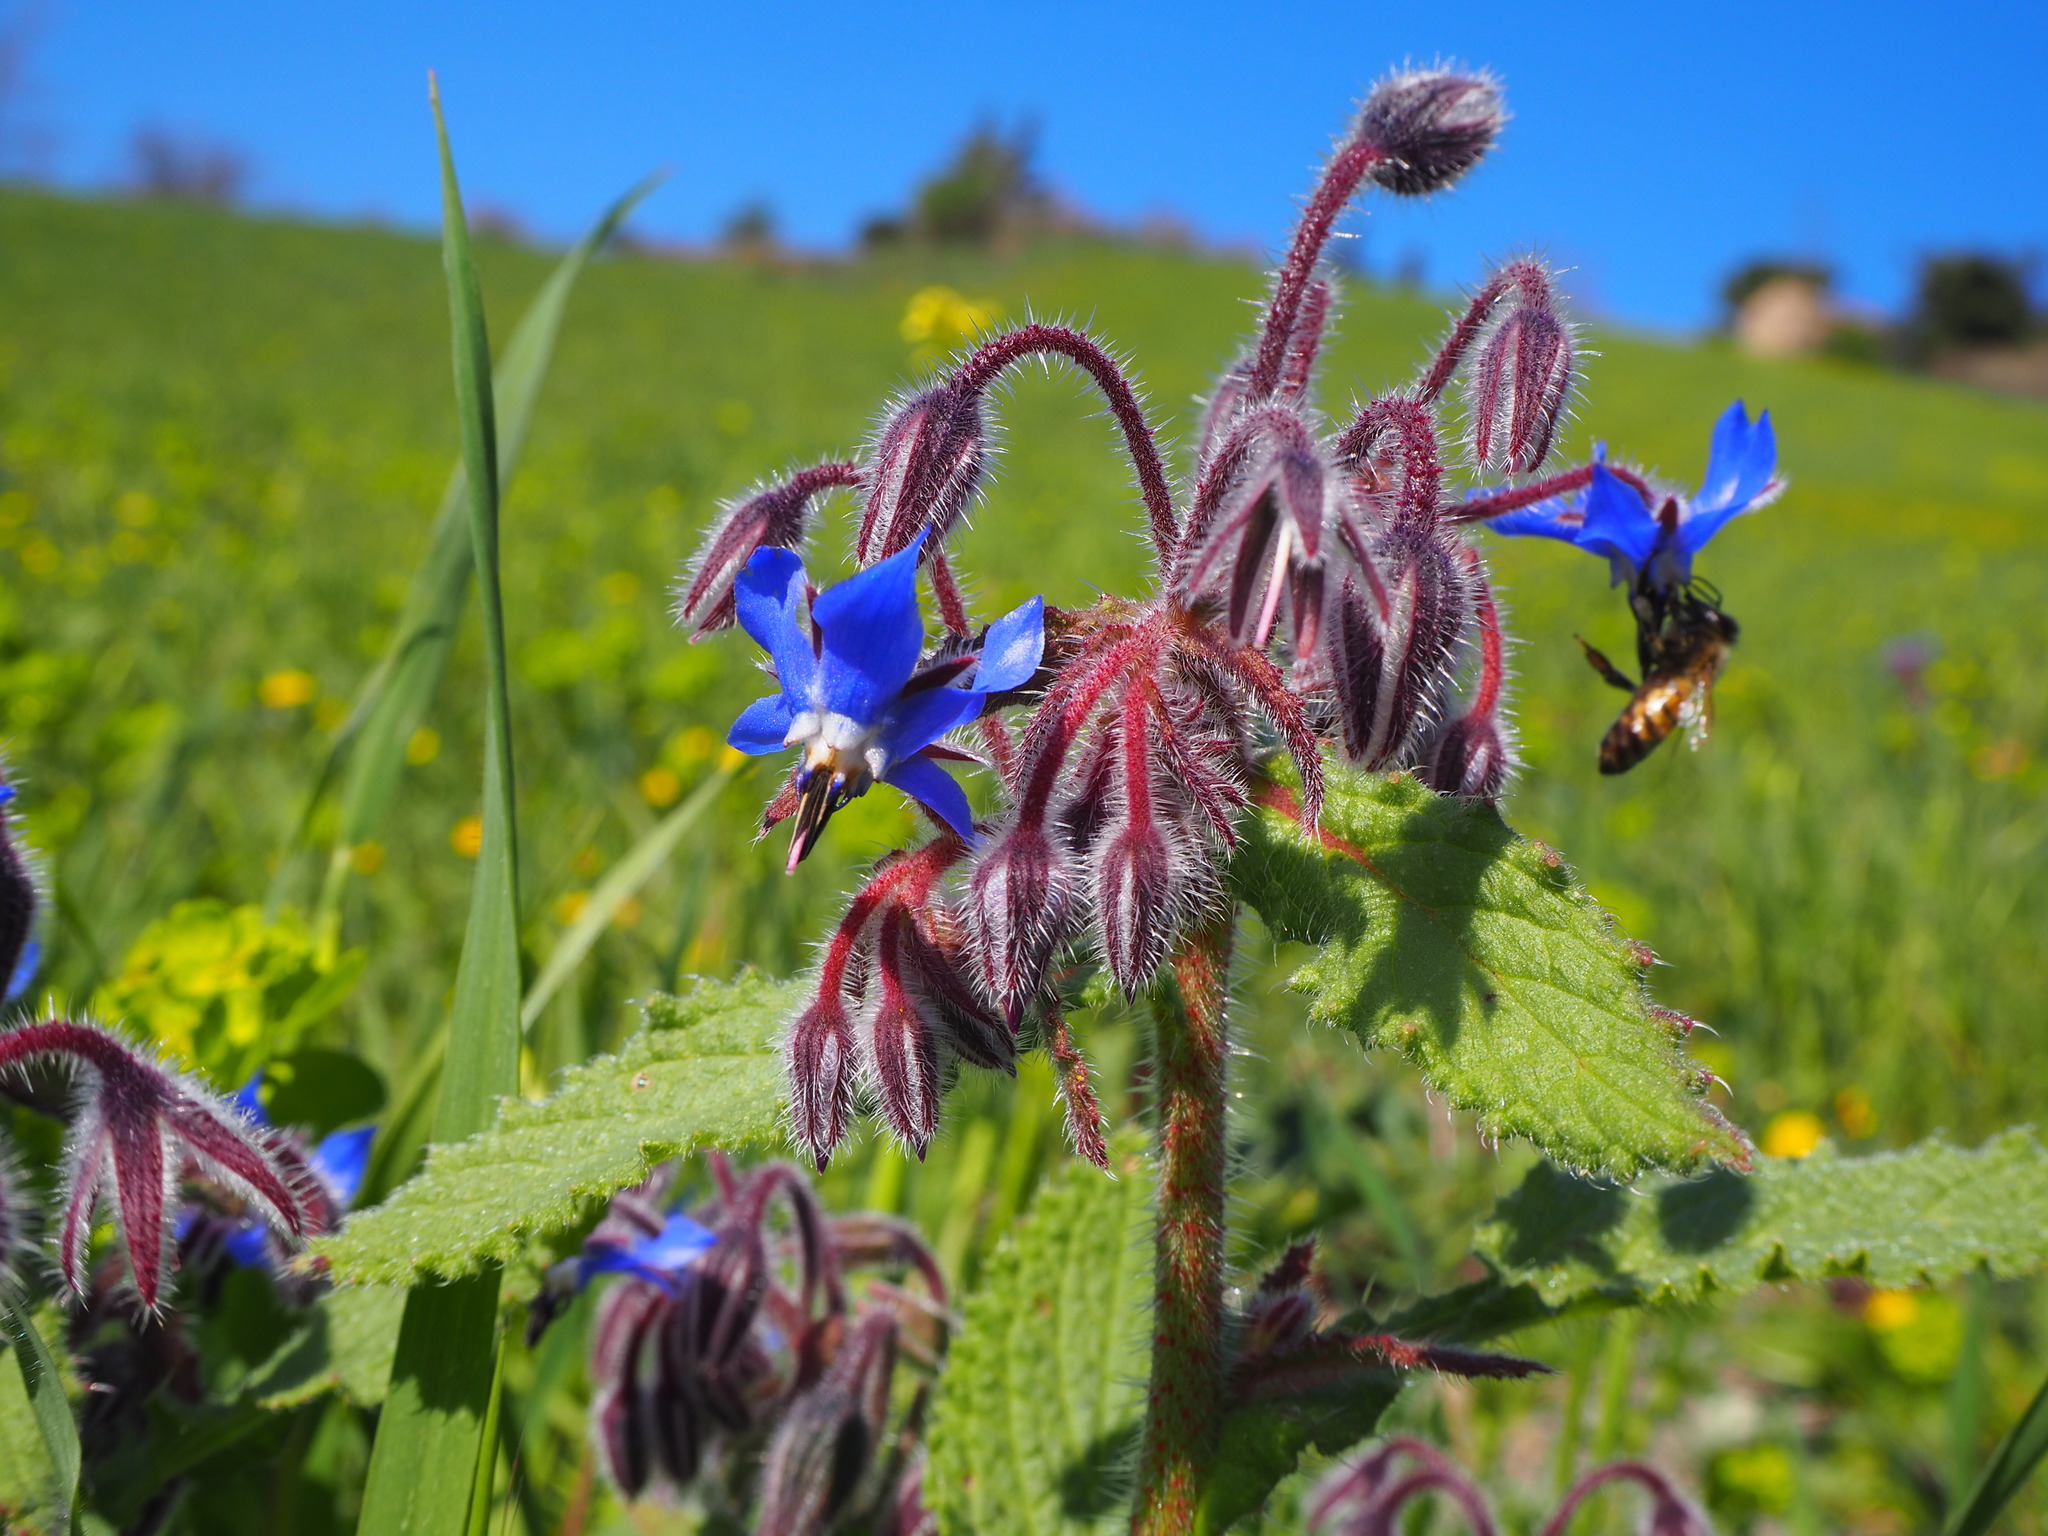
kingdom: Plantae
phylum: Tracheophyta
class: Magnoliopsida
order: Boraginales
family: Boraginaceae
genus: Borago
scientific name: Borago officinalis
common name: Borage
